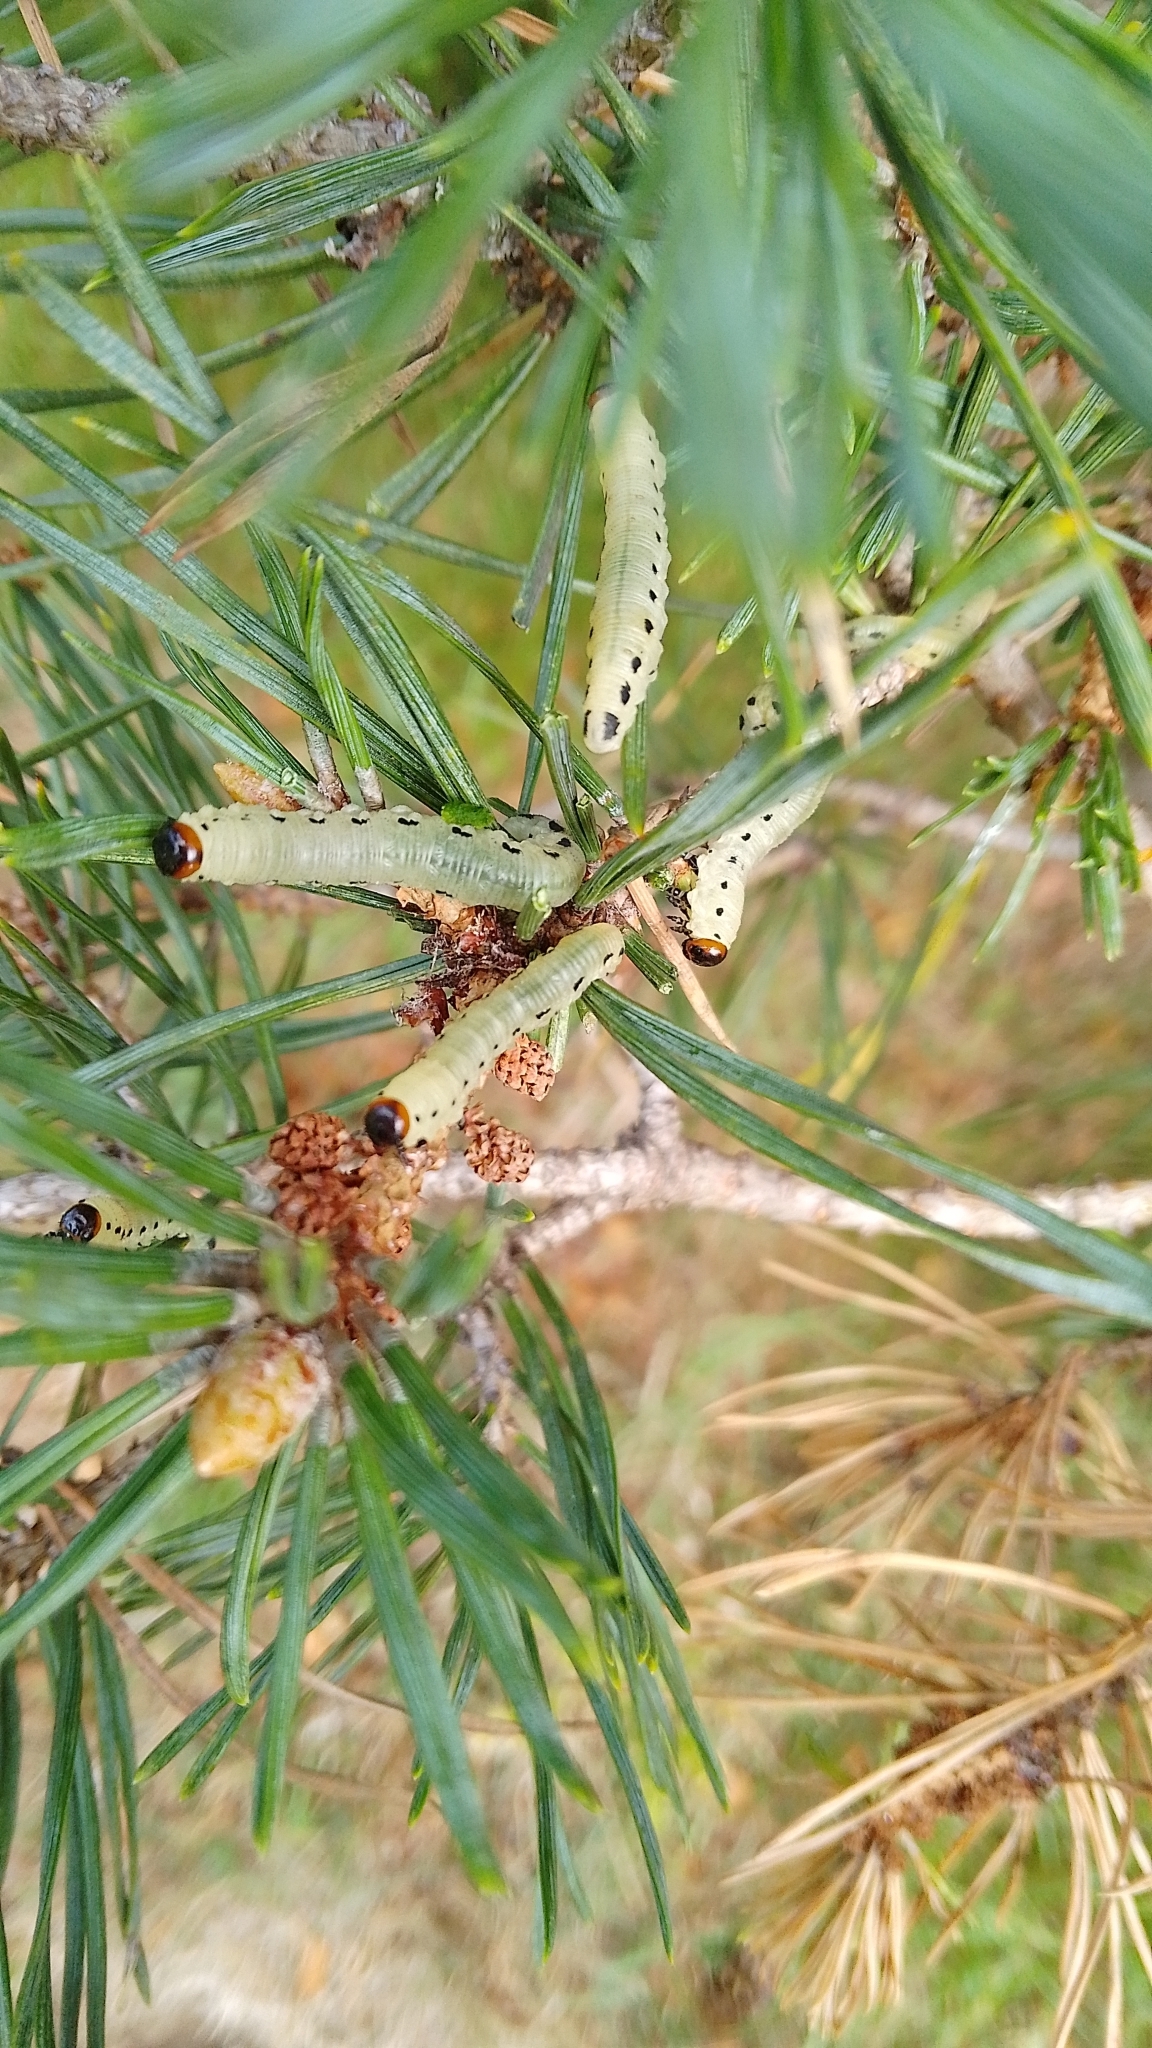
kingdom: Animalia
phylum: Arthropoda
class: Insecta
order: Hymenoptera
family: Diprionidae
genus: Diprion
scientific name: Diprion pini
